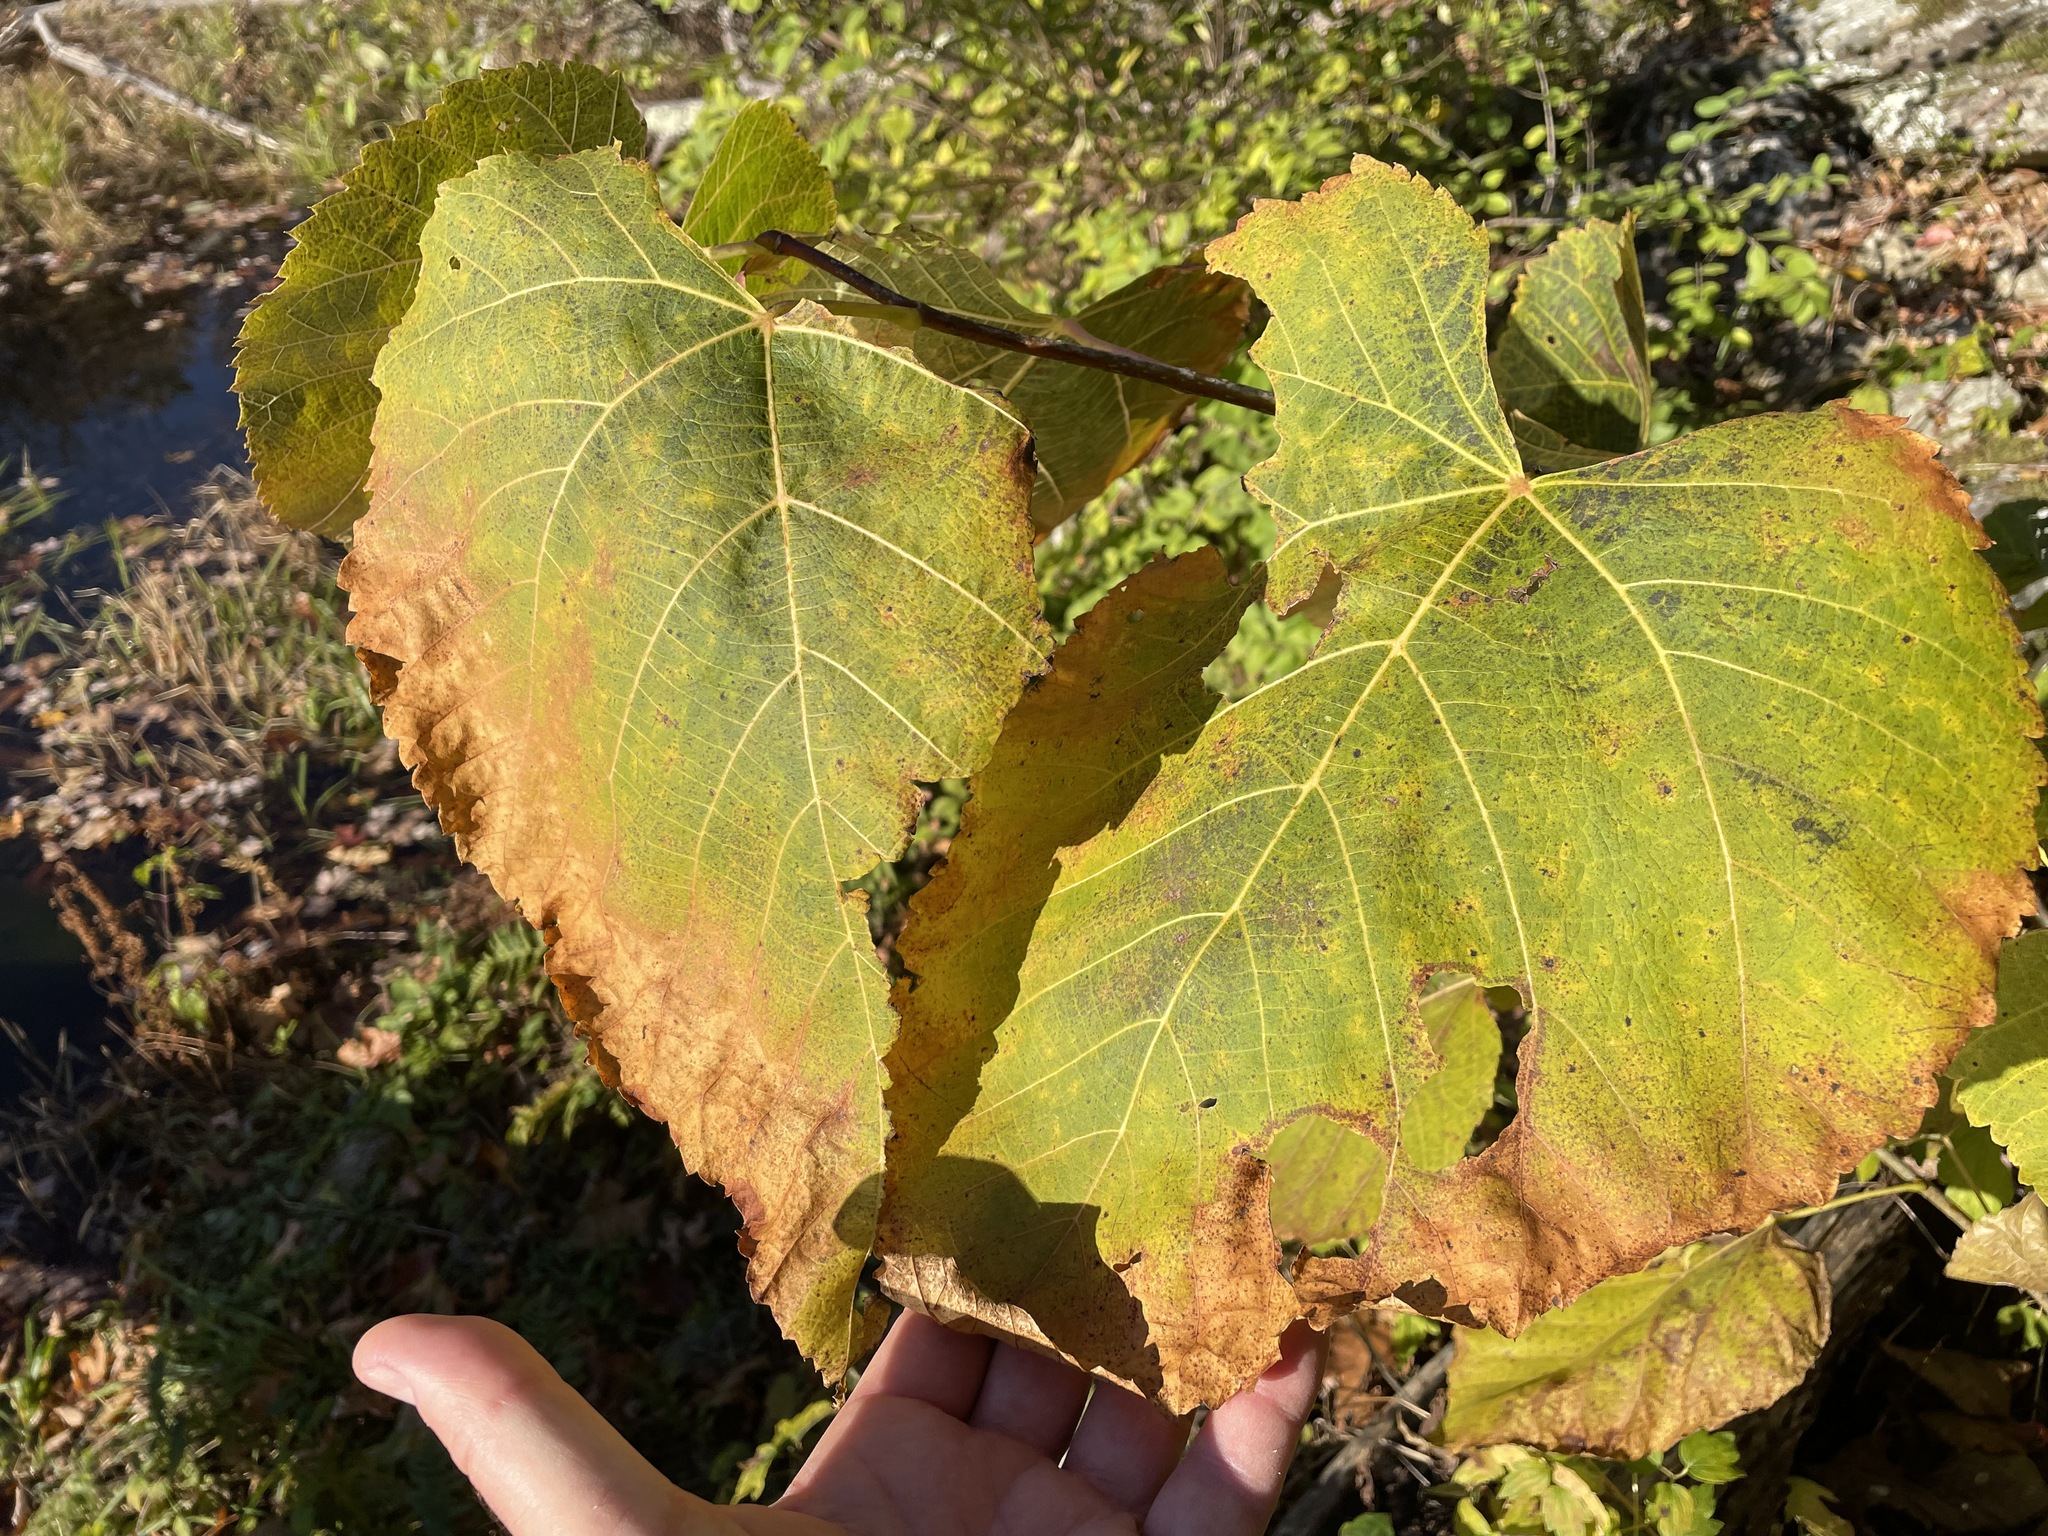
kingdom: Plantae
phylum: Tracheophyta
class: Magnoliopsida
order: Malvales
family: Malvaceae
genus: Tilia
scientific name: Tilia americana
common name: Basswood
